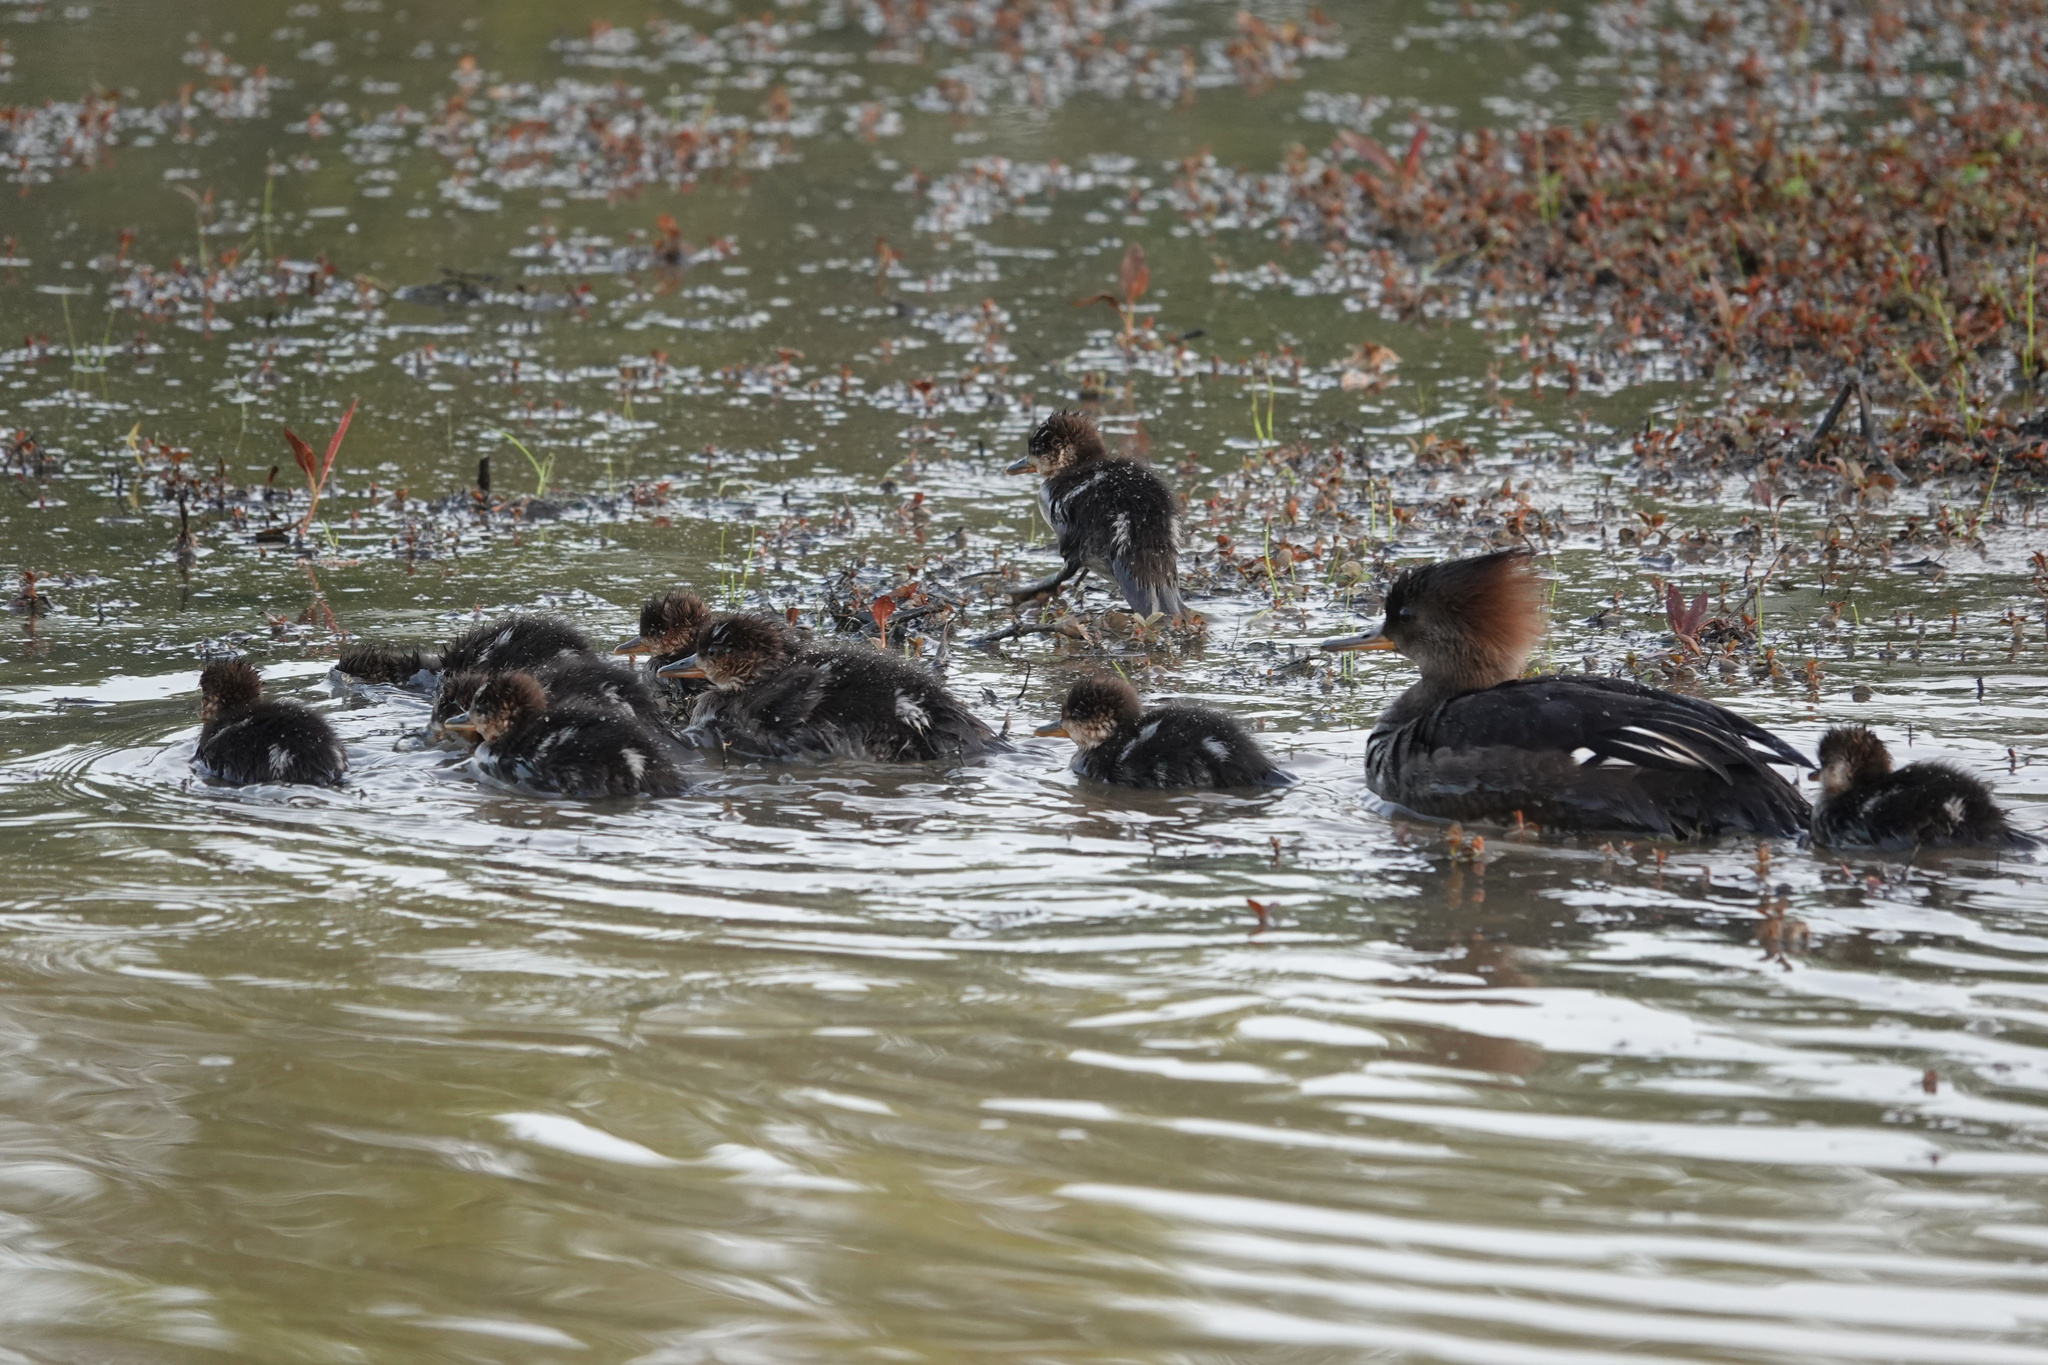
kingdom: Animalia
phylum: Chordata
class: Aves
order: Anseriformes
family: Anatidae
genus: Lophodytes
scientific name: Lophodytes cucullatus
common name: Hooded merganser
